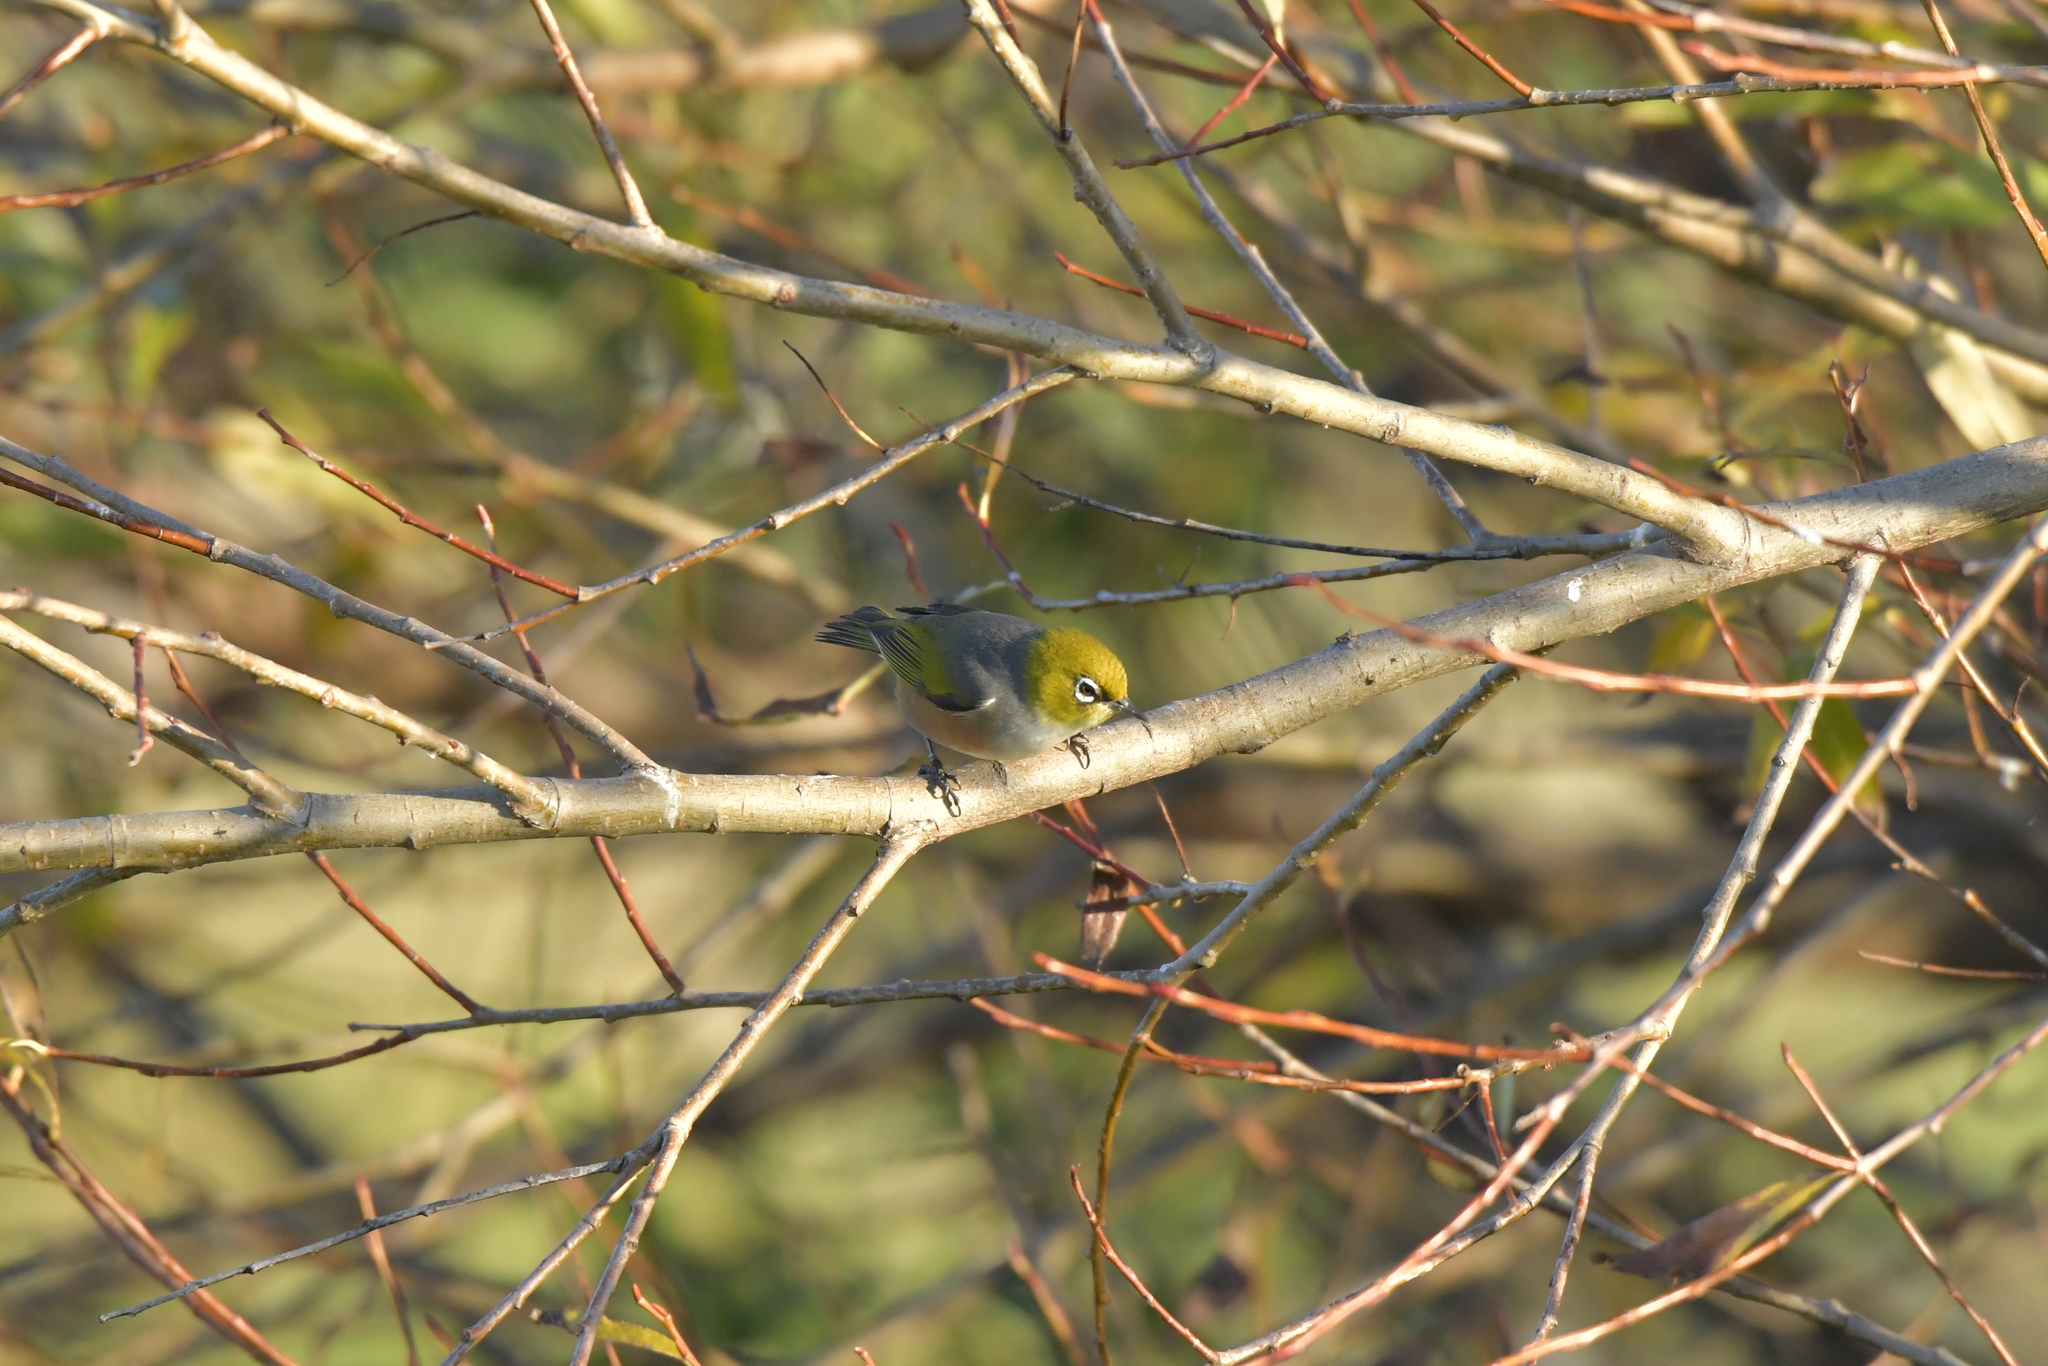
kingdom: Animalia
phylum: Chordata
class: Aves
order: Passeriformes
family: Zosteropidae
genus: Zosterops
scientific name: Zosterops lateralis
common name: Silvereye
